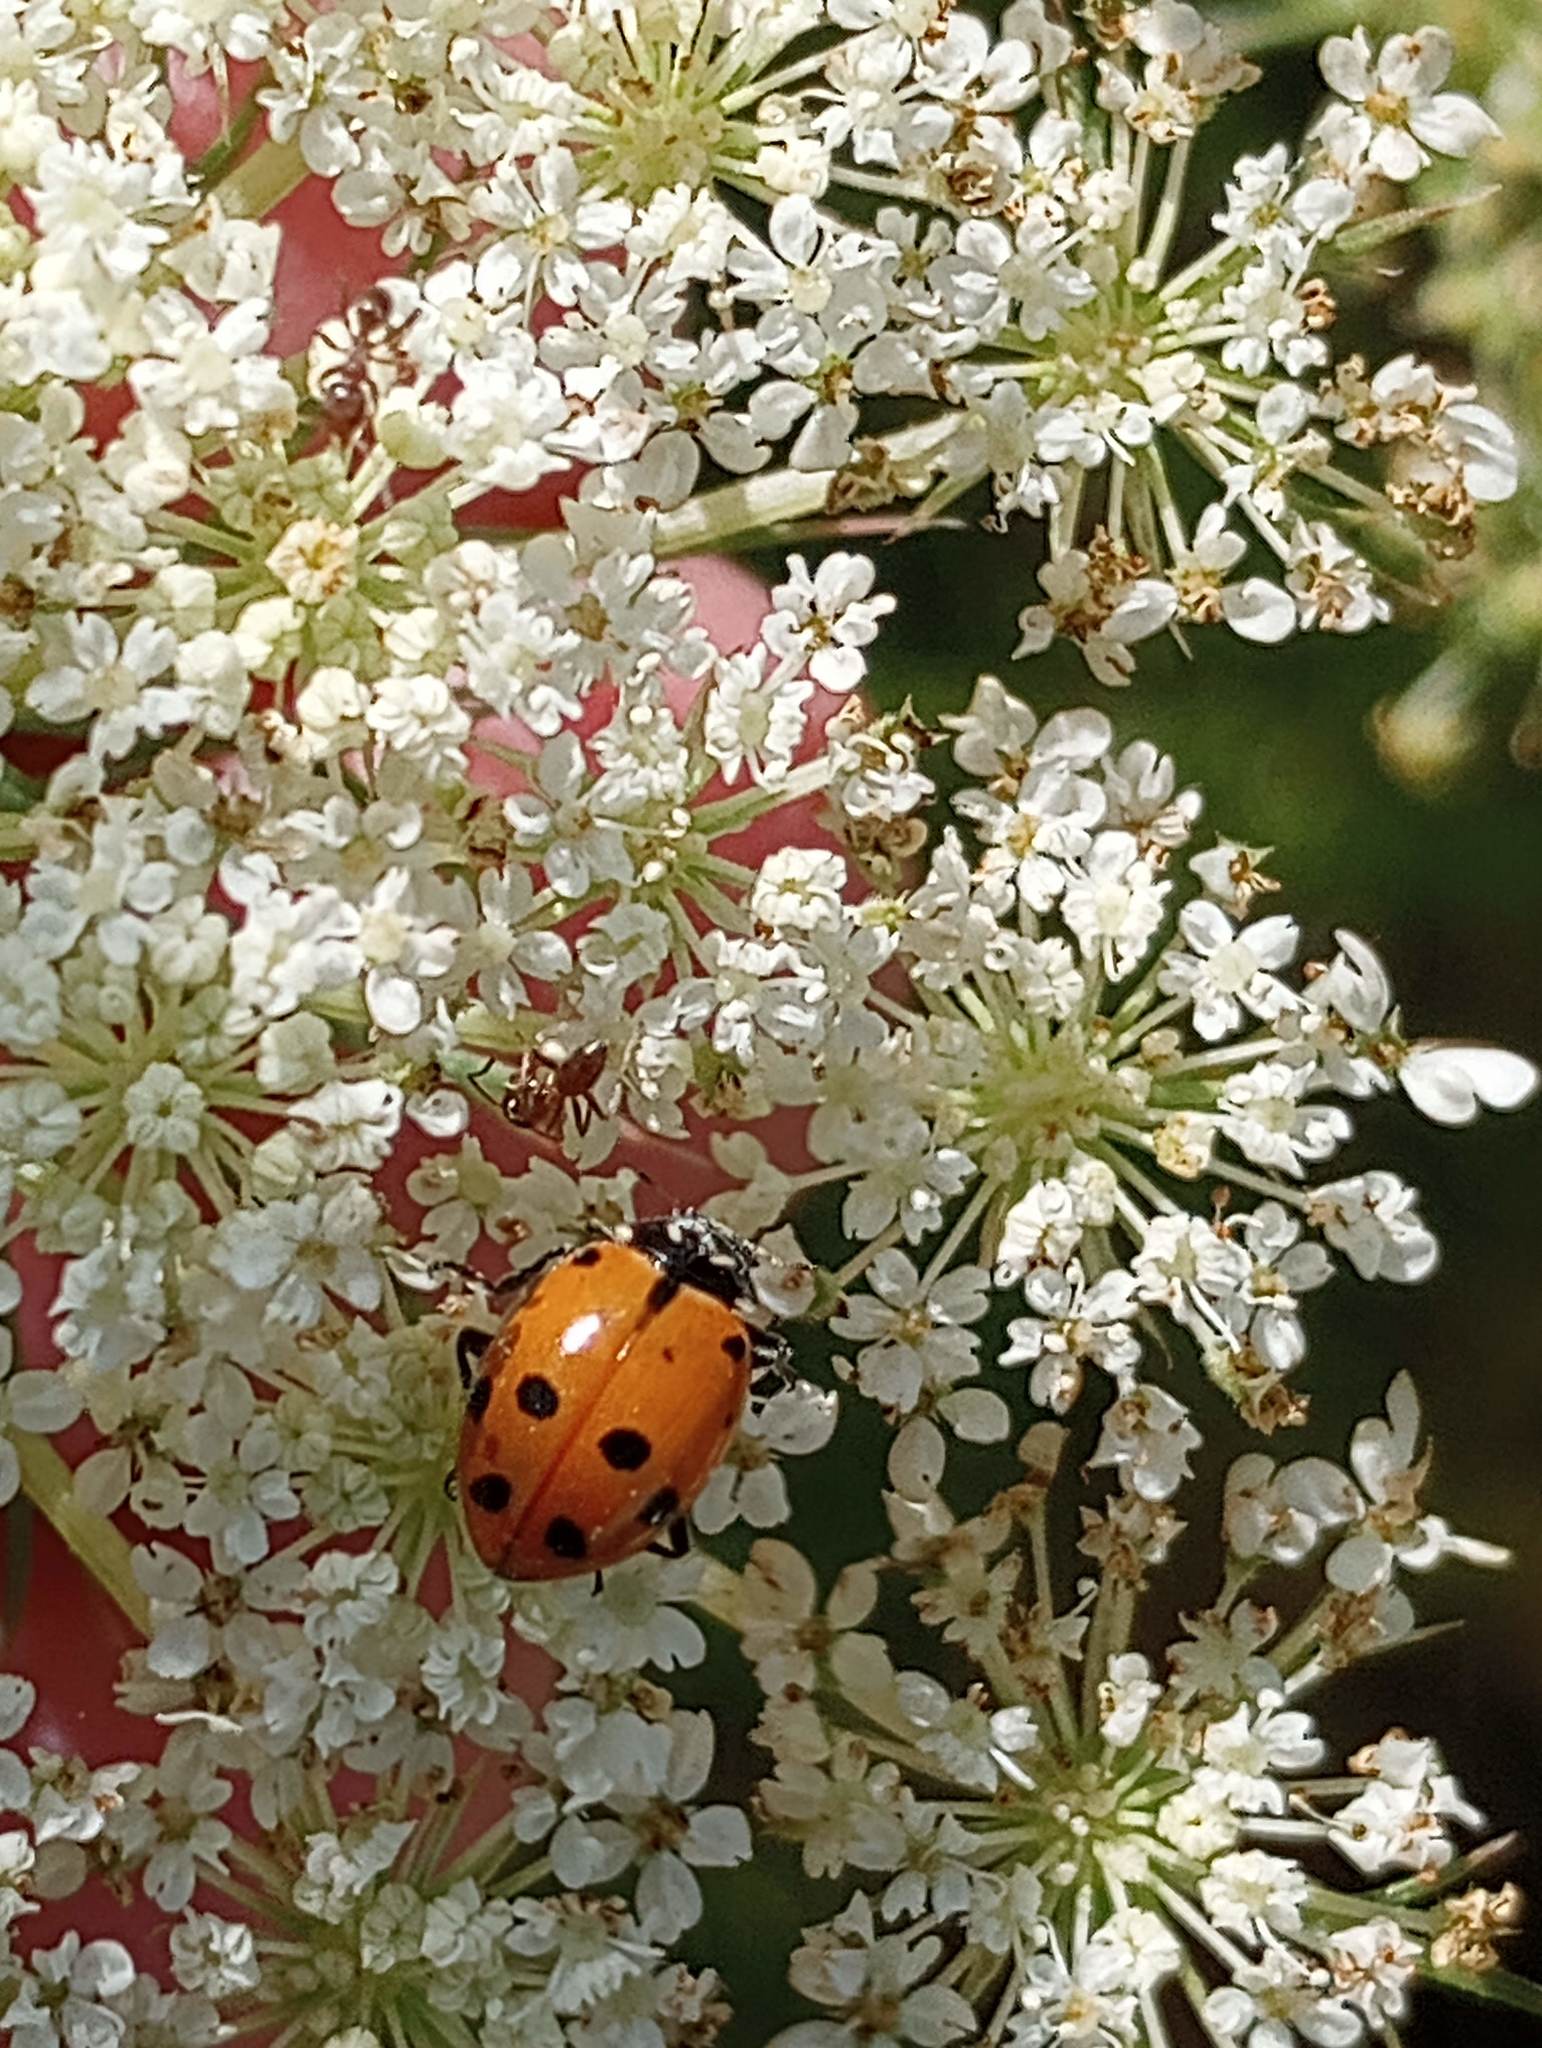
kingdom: Animalia
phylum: Arthropoda
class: Insecta
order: Coleoptera
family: Coccinellidae
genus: Hippodamia
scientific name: Hippodamia convergens
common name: Convergent lady beetle
